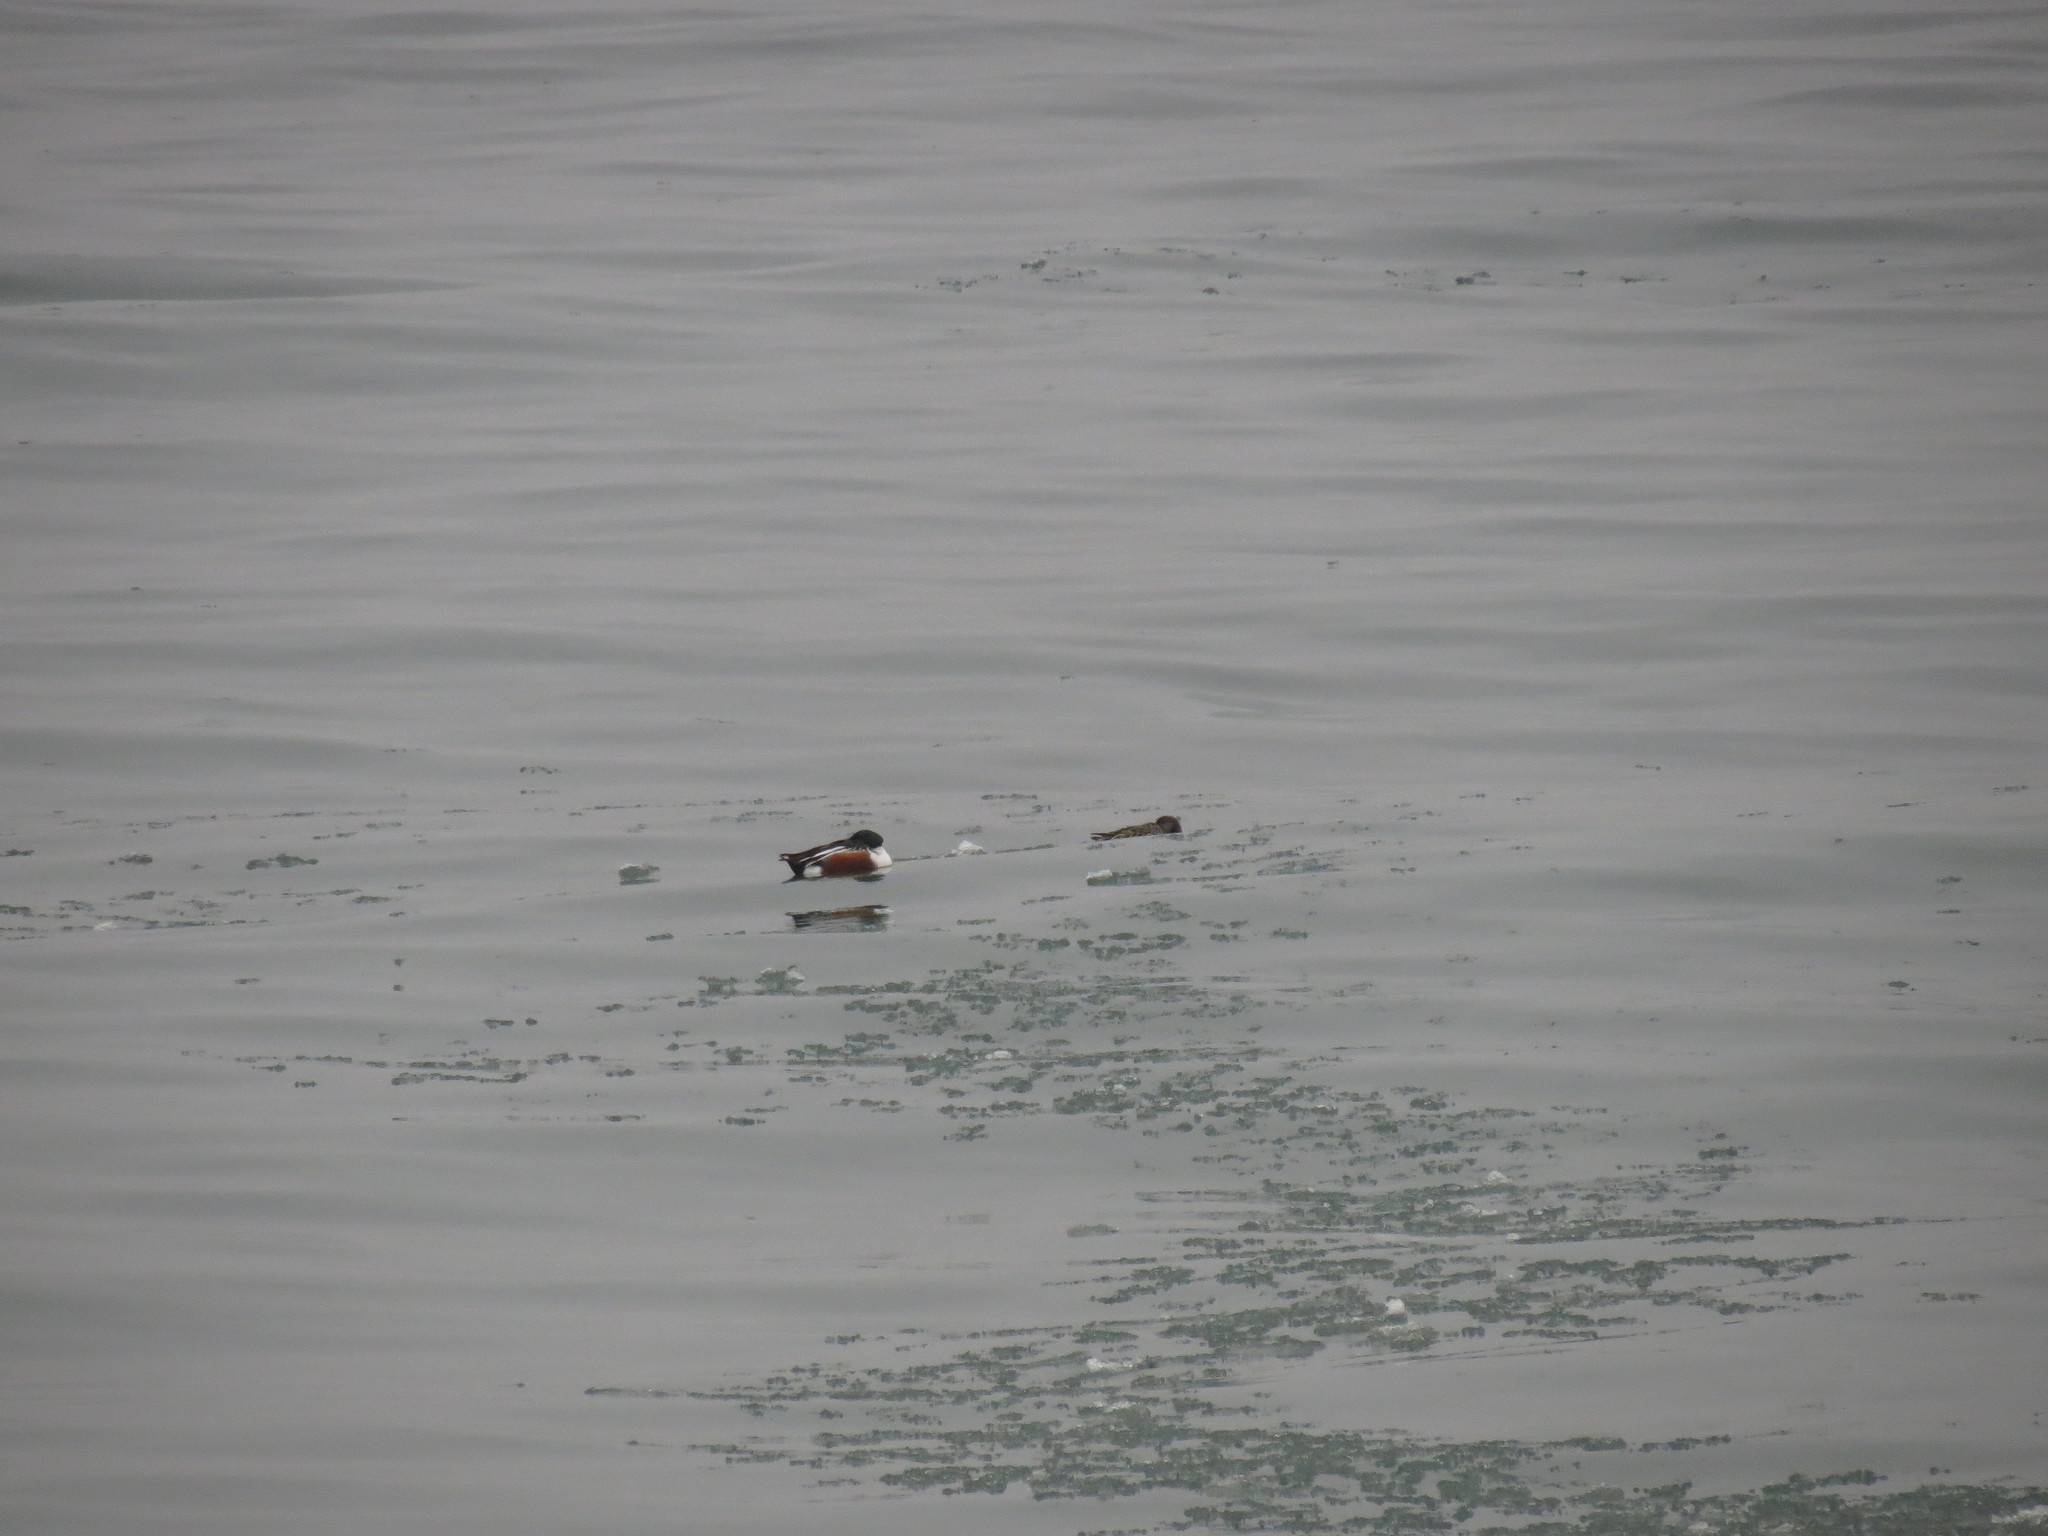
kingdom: Animalia
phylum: Chordata
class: Aves
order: Anseriformes
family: Anatidae
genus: Spatula
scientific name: Spatula clypeata
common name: Northern shoveler
